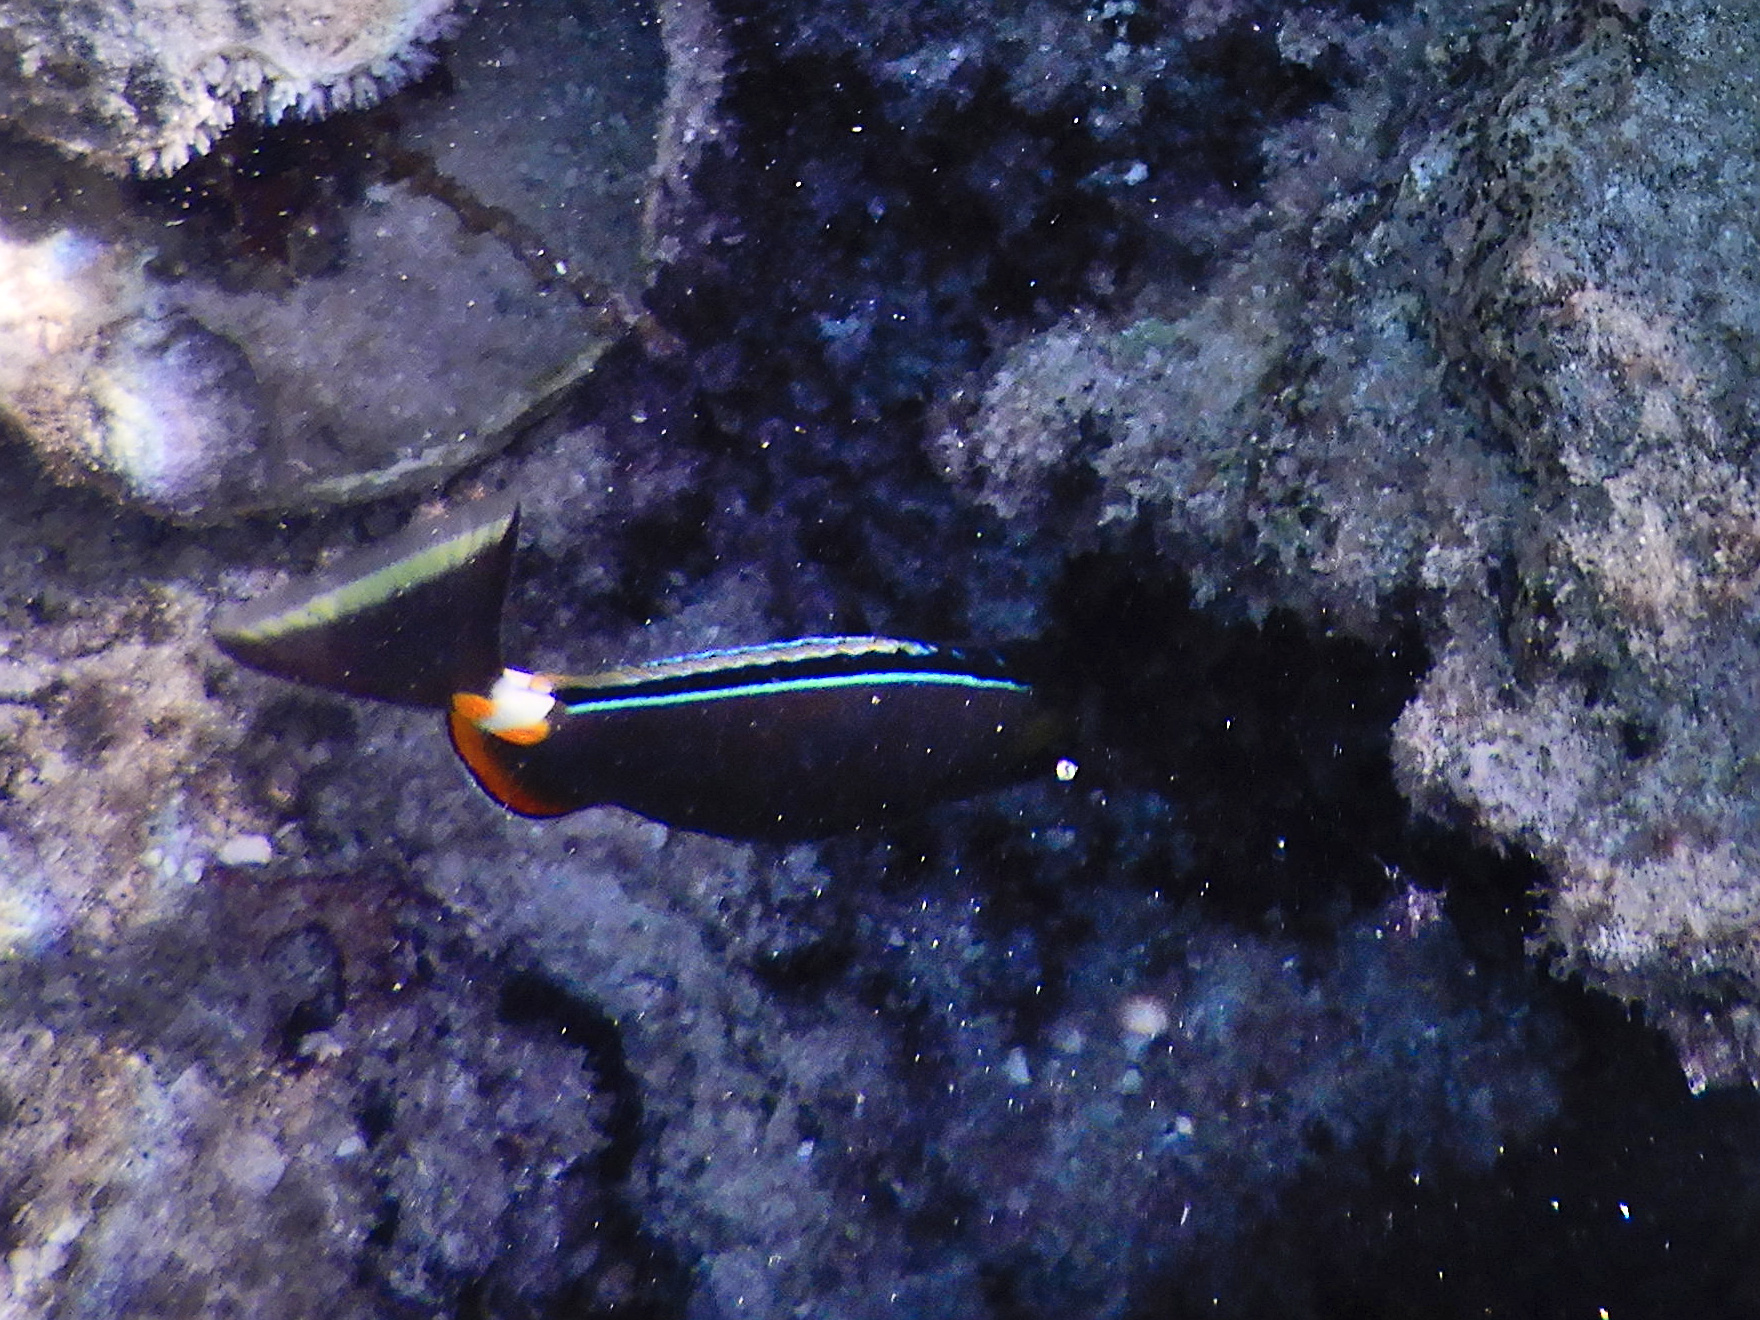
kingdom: Animalia
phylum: Chordata
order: Perciformes
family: Acanthuridae
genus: Naso
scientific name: Naso lituratus
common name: Orangespine unicornfish
